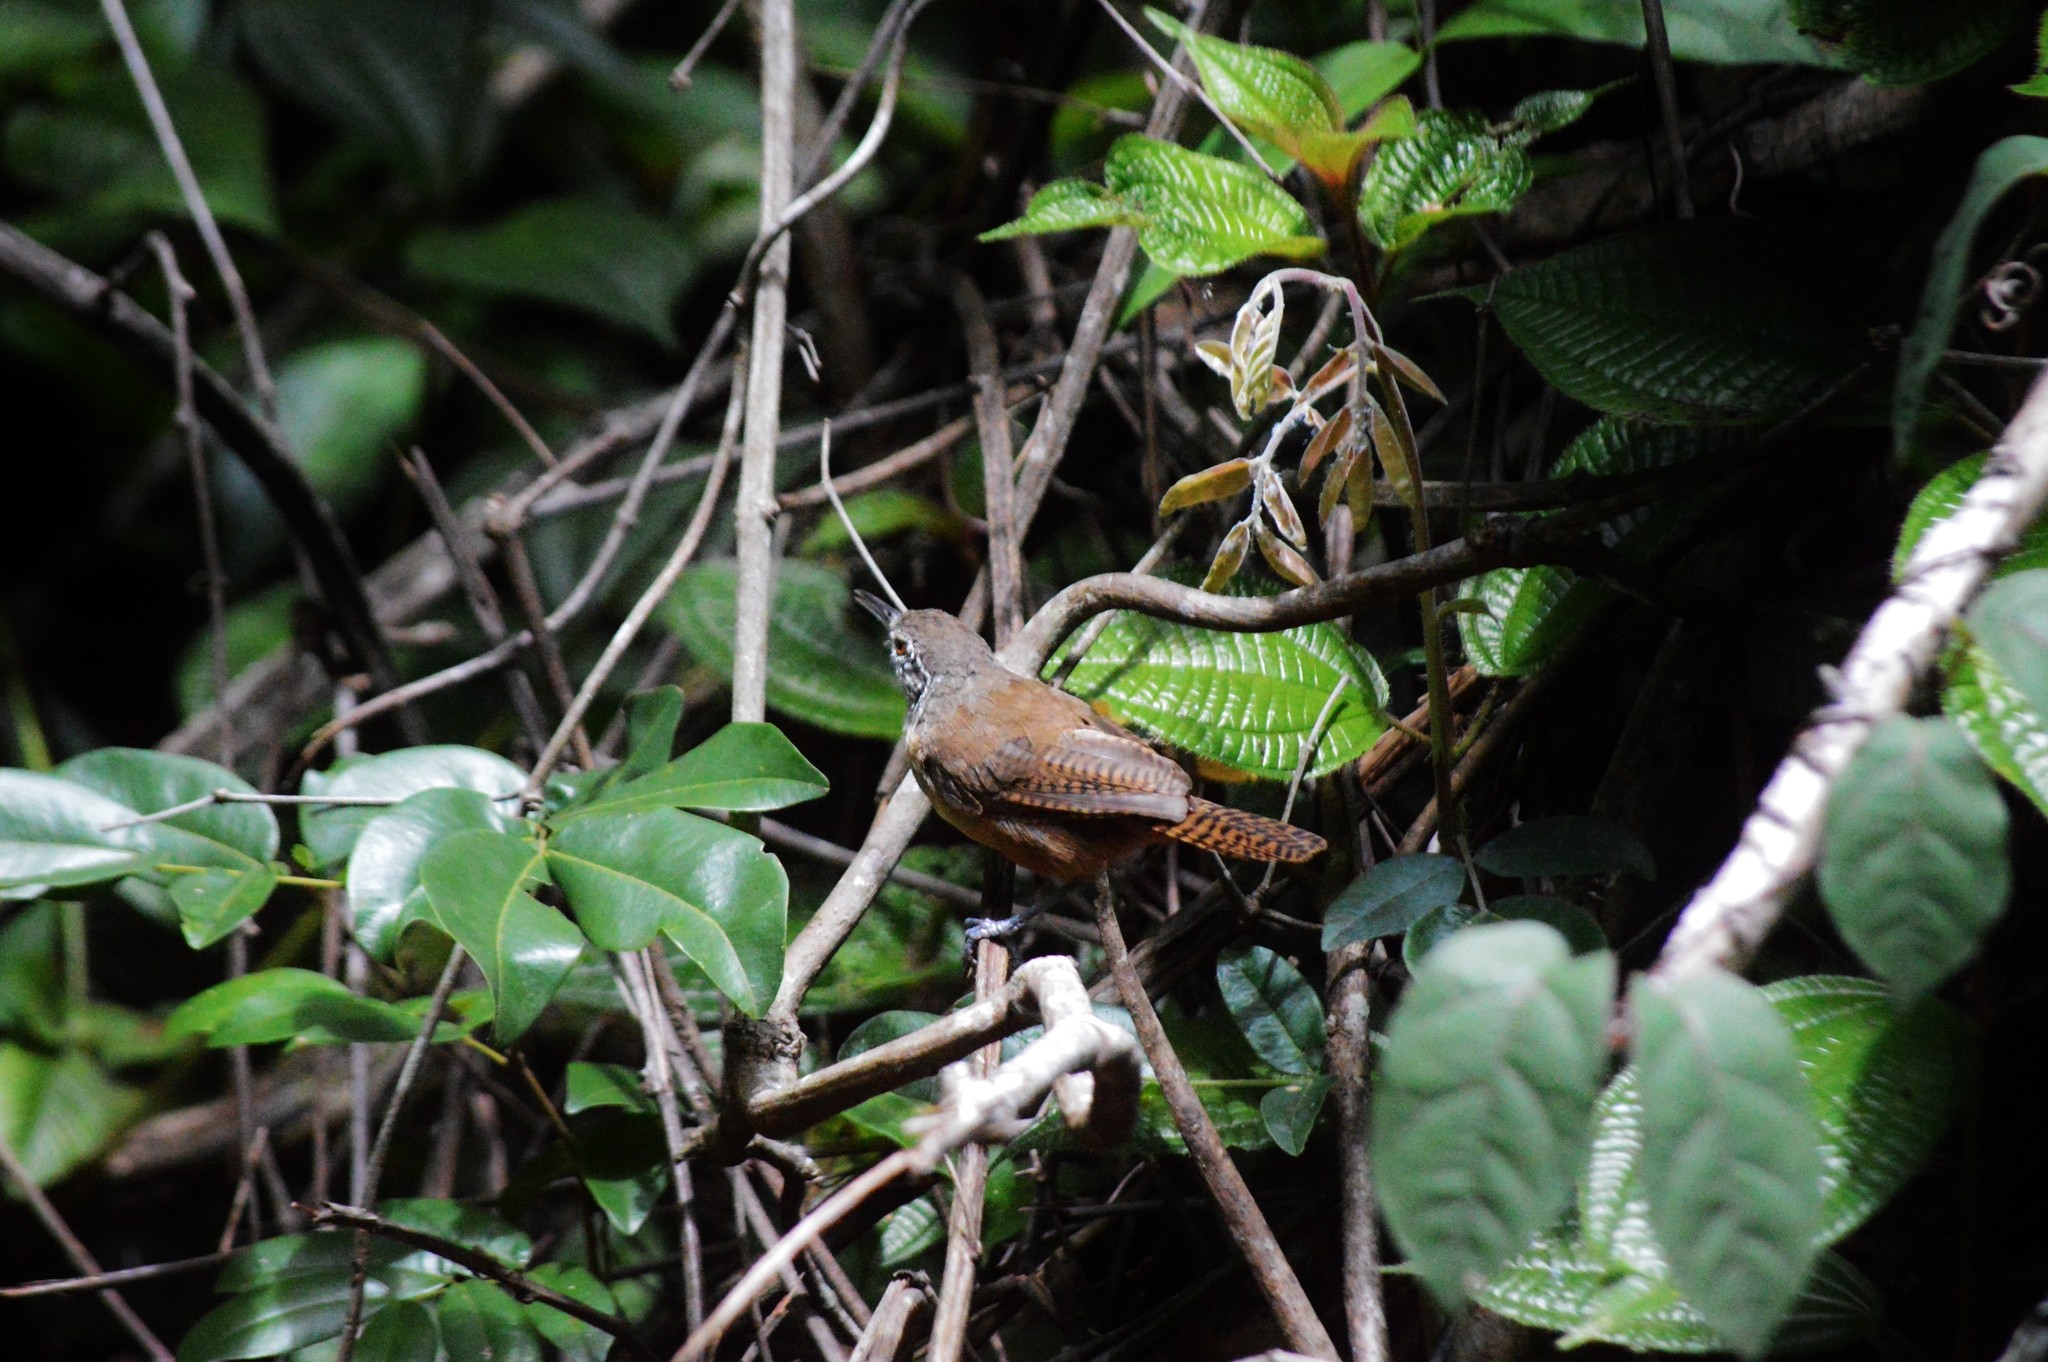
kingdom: Animalia
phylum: Chordata
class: Aves
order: Passeriformes
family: Troglodytidae
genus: Cantorchilus
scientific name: Cantorchilus leucotis
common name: Buff-breasted wren
